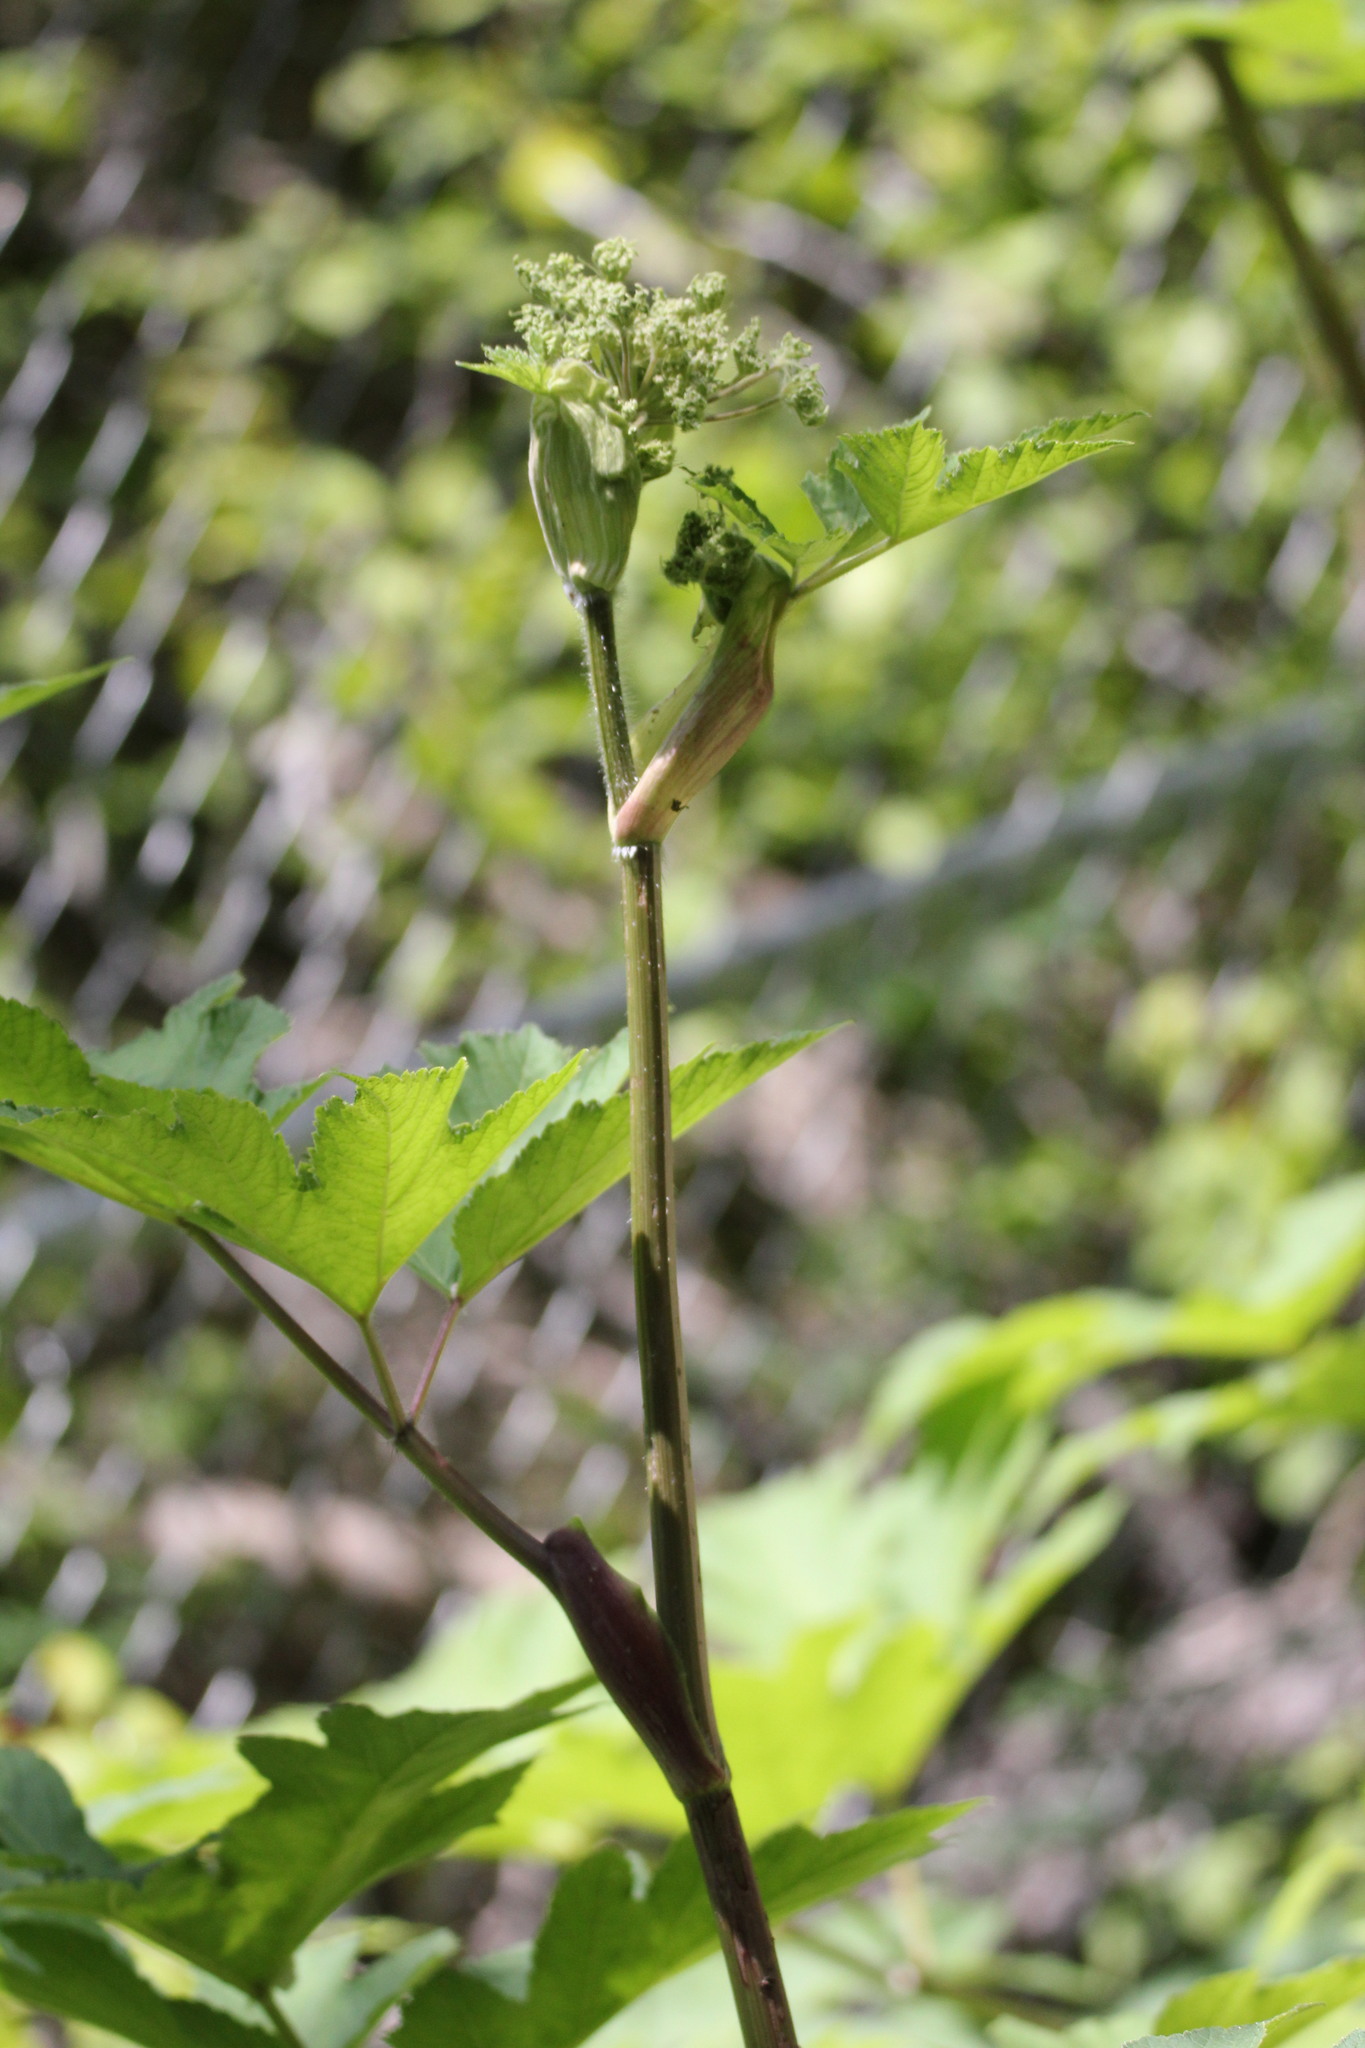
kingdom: Plantae
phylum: Tracheophyta
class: Magnoliopsida
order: Apiales
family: Apiaceae
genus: Heracleum
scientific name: Heracleum maximum
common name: American cow parsnip
